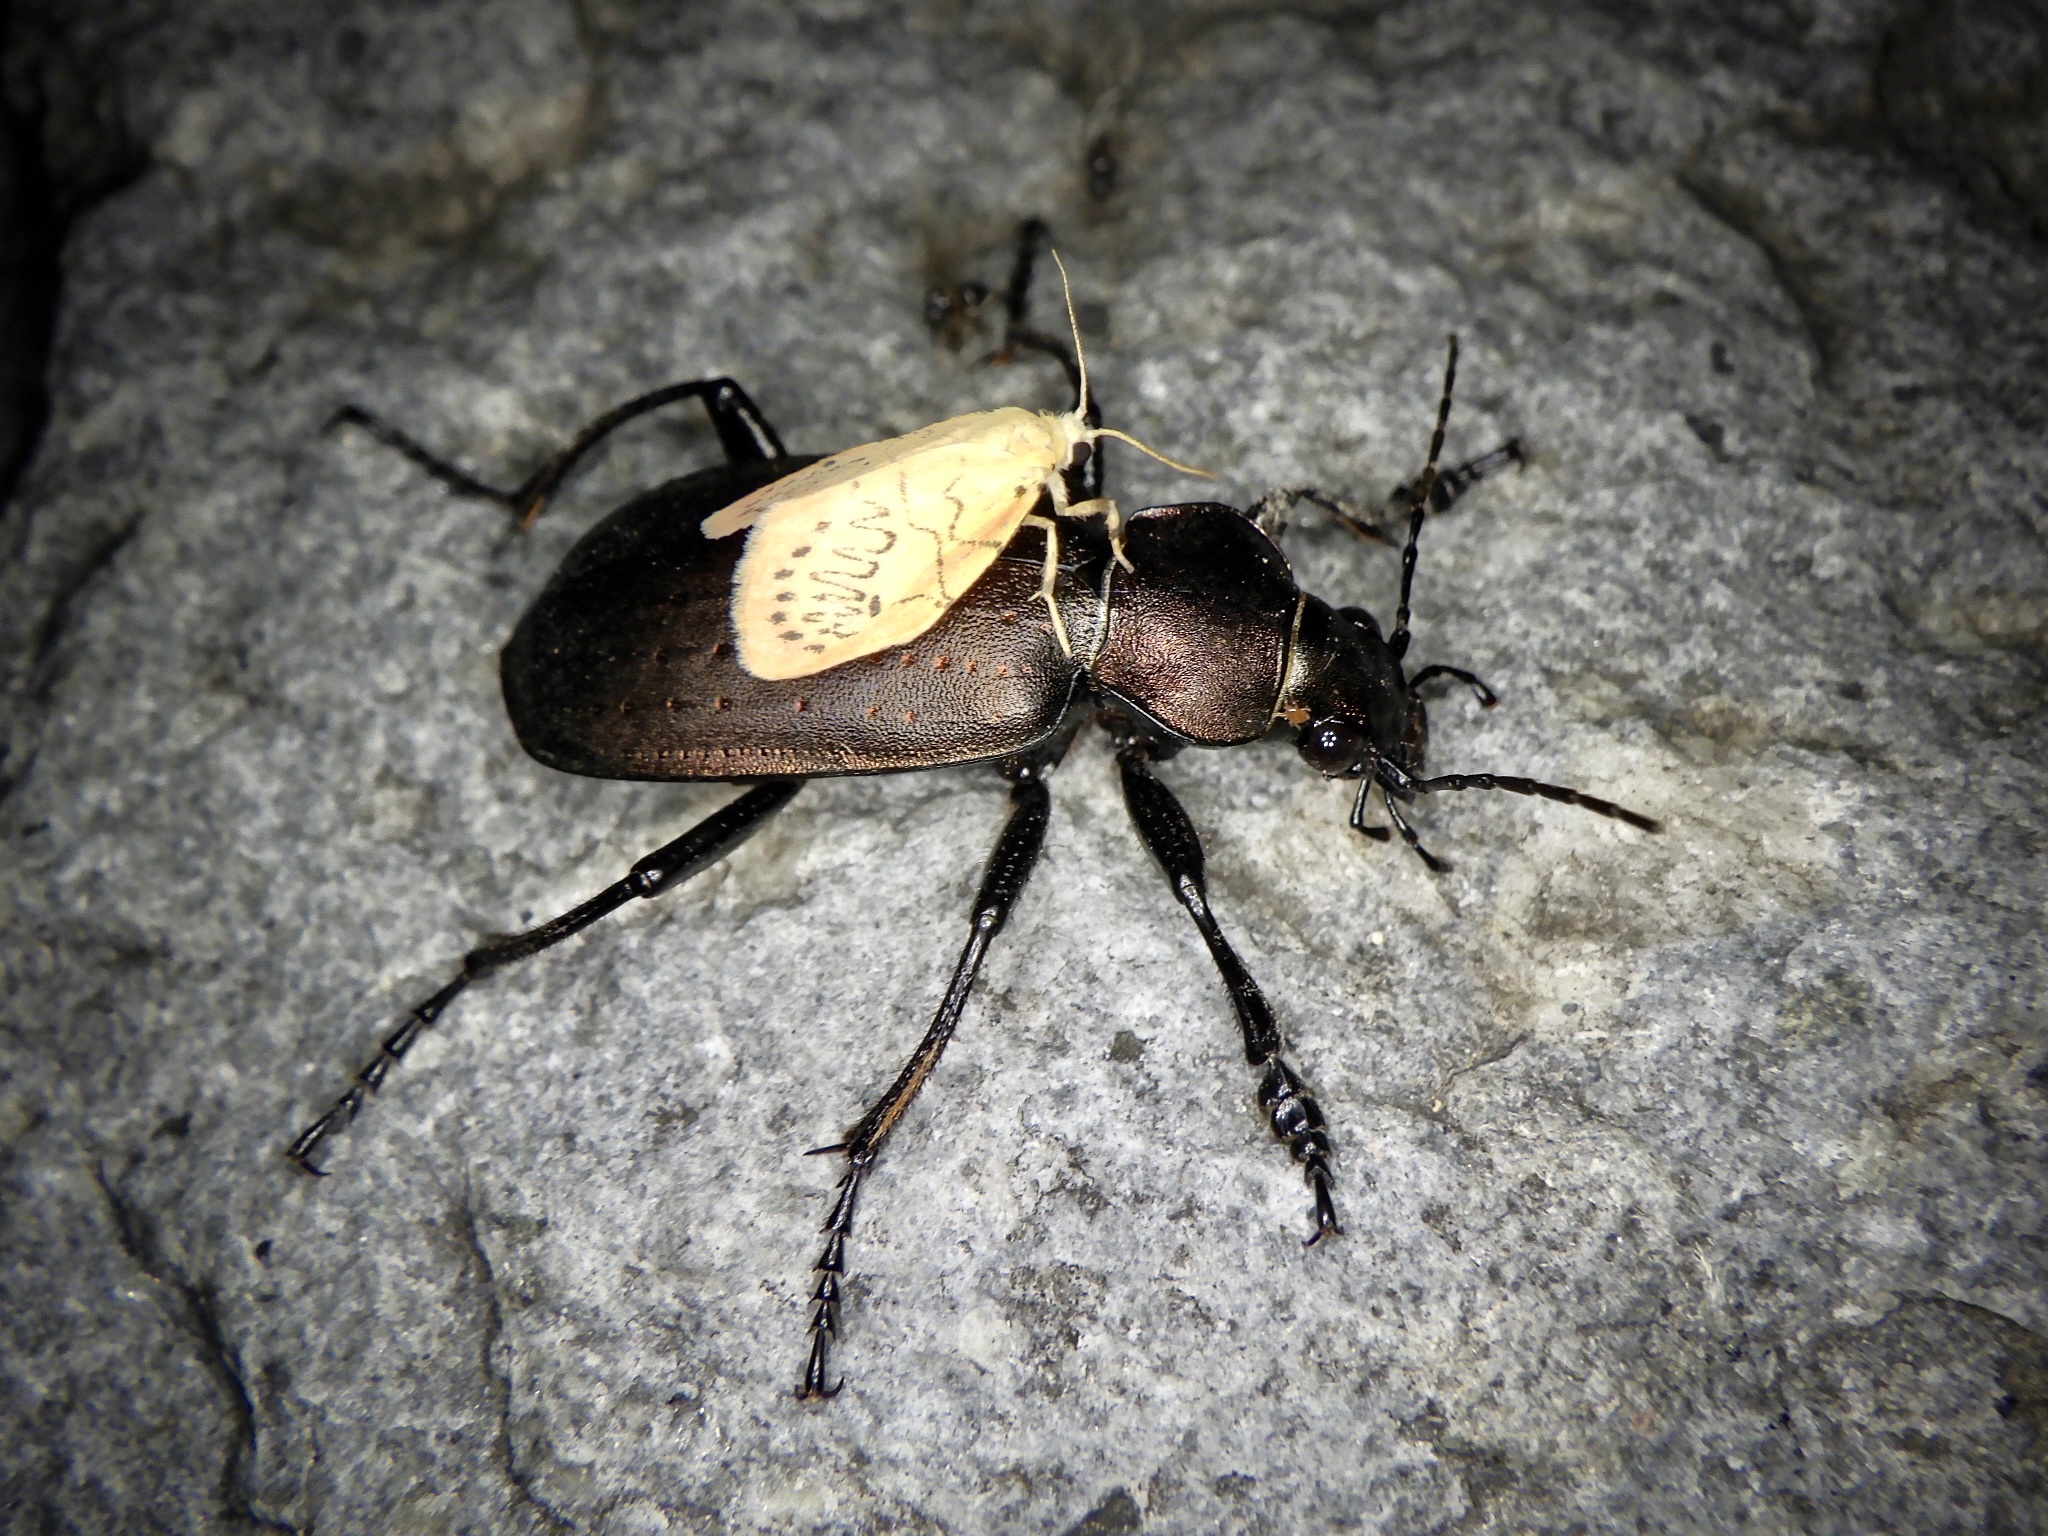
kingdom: Animalia
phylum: Arthropoda
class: Insecta
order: Coleoptera
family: Carabidae
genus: Calosoma
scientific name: Calosoma chinense
